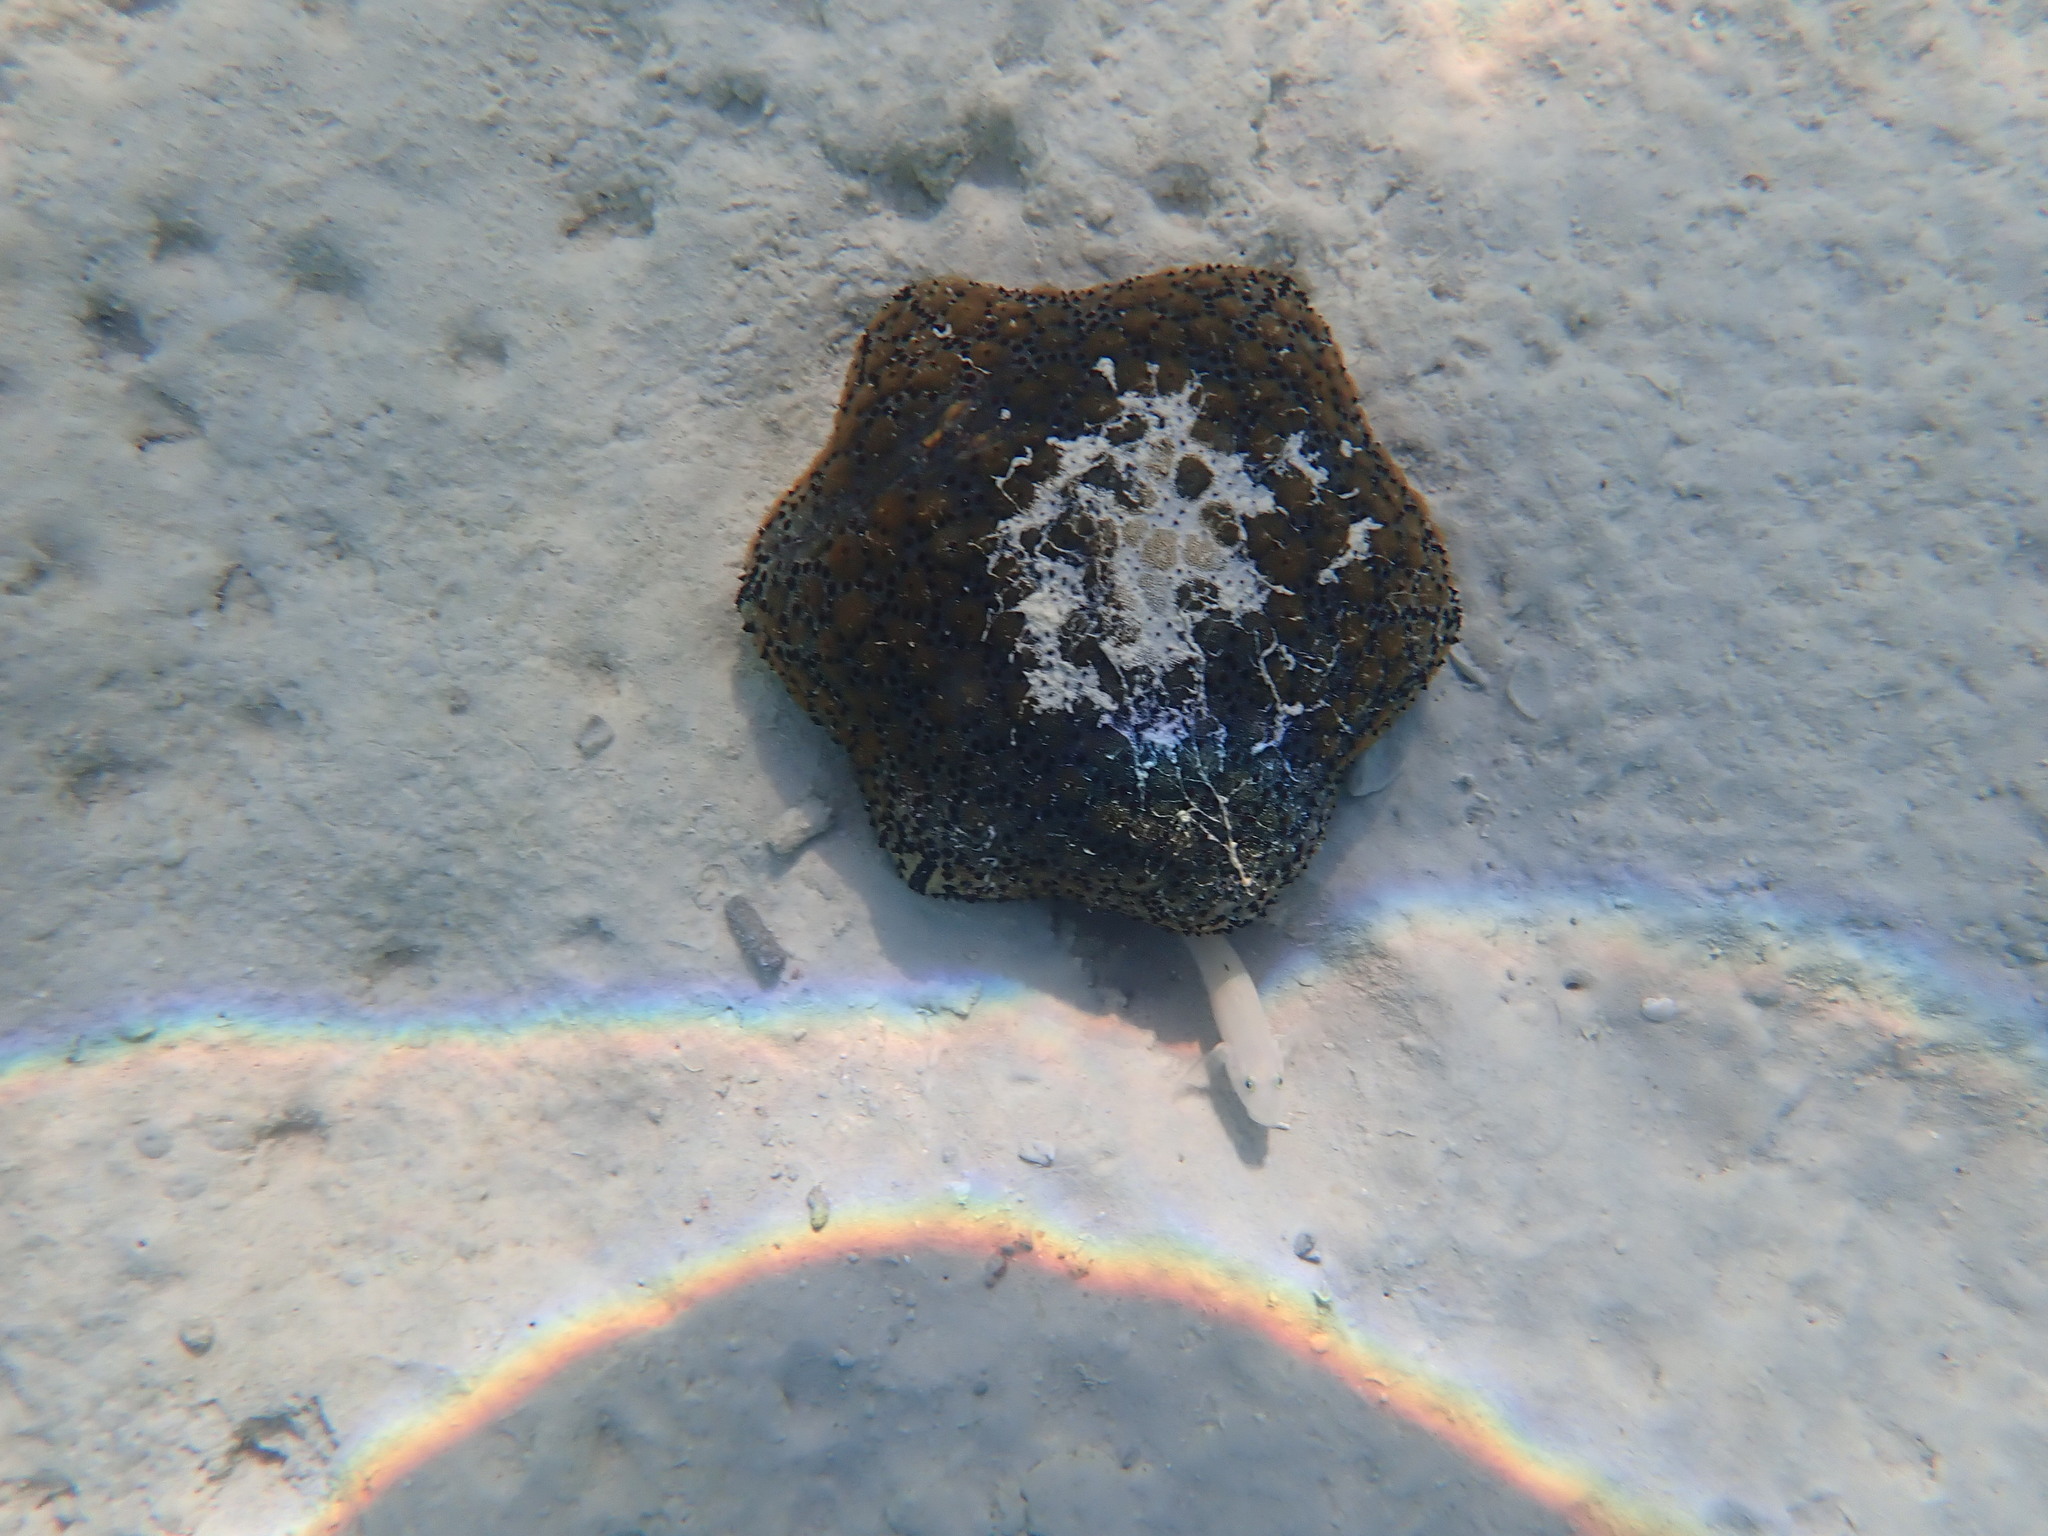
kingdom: Animalia
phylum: Echinodermata
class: Asteroidea
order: Valvatida
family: Oreasteridae
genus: Culcita
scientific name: Culcita schmideliana
